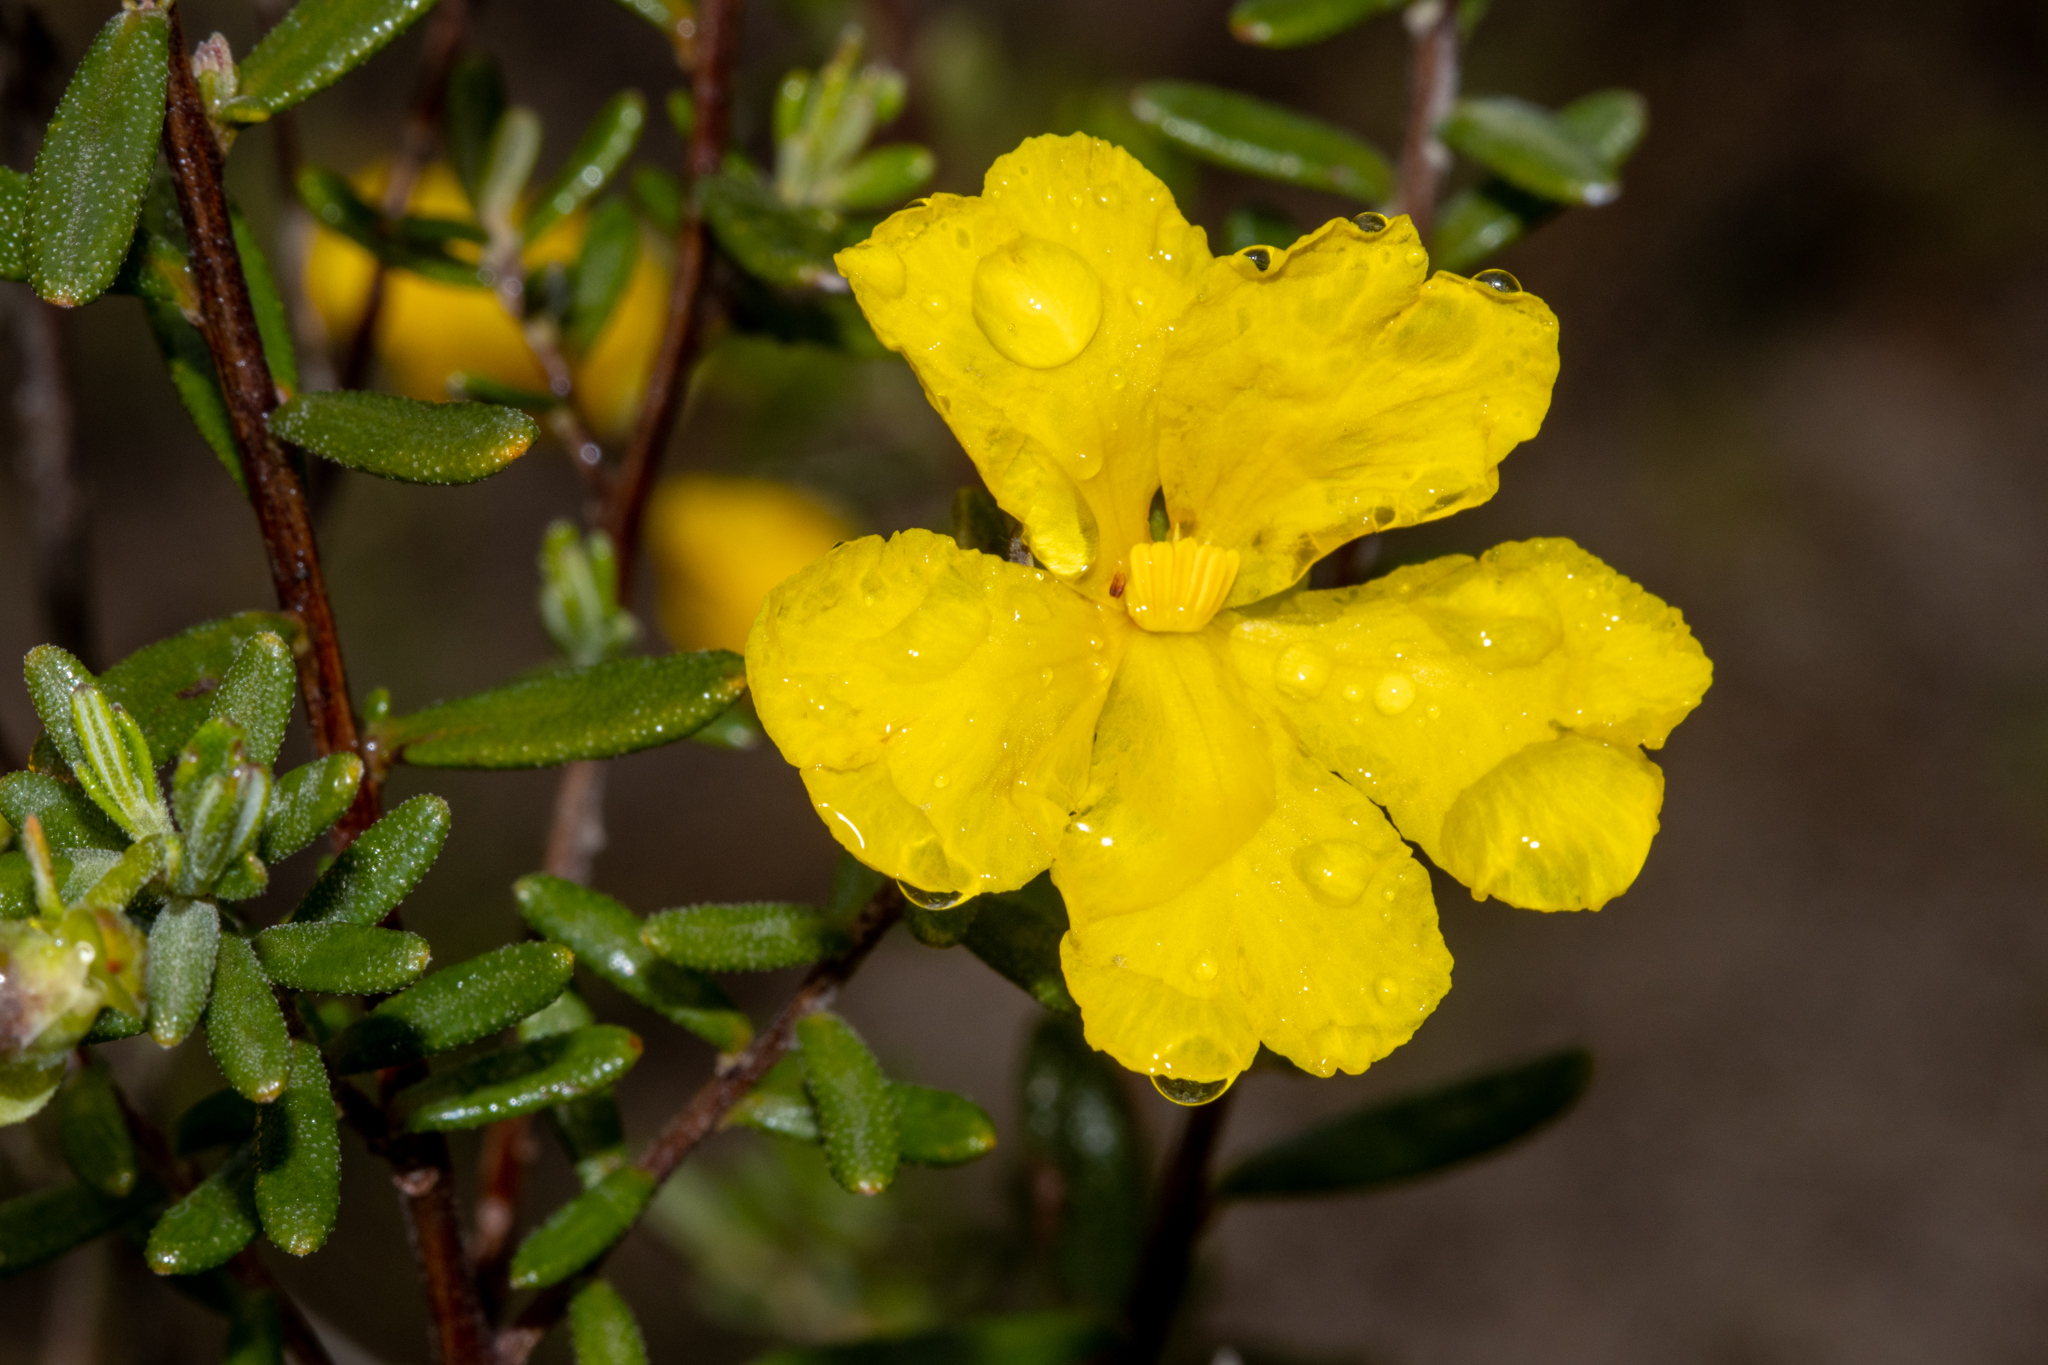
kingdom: Plantae
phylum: Tracheophyta
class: Magnoliopsida
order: Dilleniales
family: Dilleniaceae
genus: Hibbertia
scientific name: Hibbertia hypericoides
